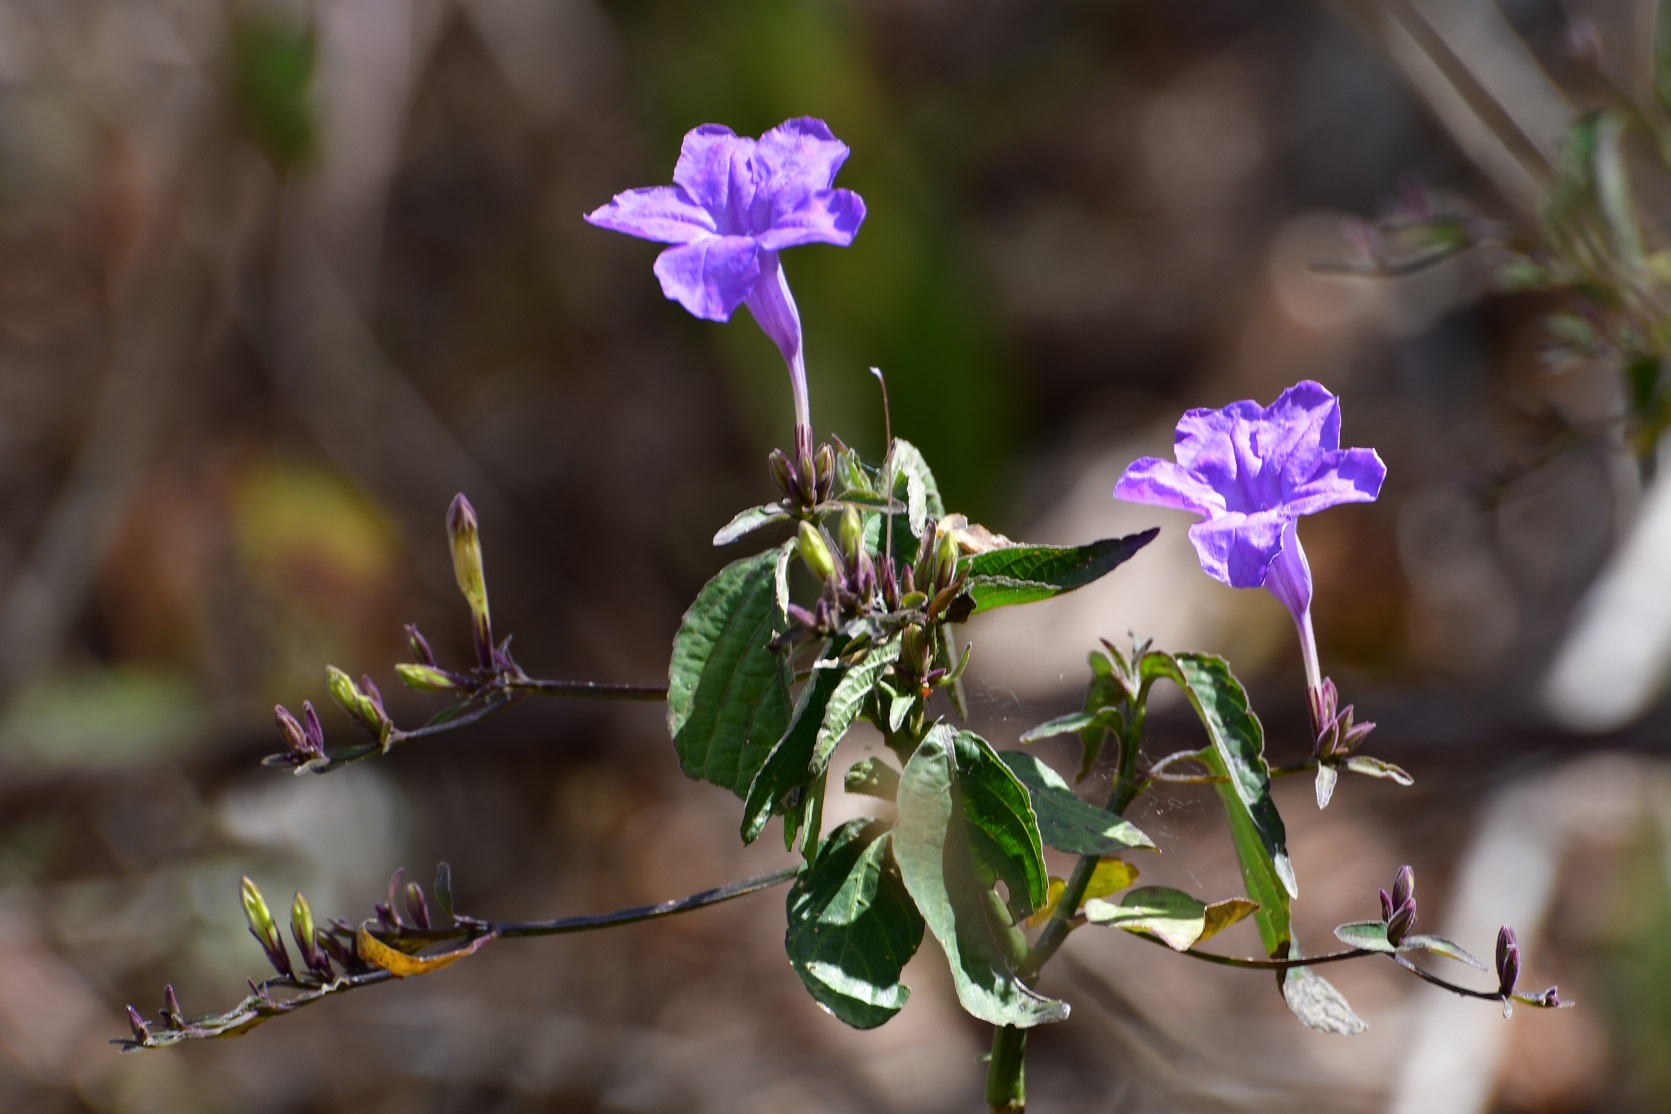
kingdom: Plantae
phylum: Tracheophyta
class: Magnoliopsida
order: Lamiales
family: Acanthaceae
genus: Ruellia
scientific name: Ruellia breedlovei
